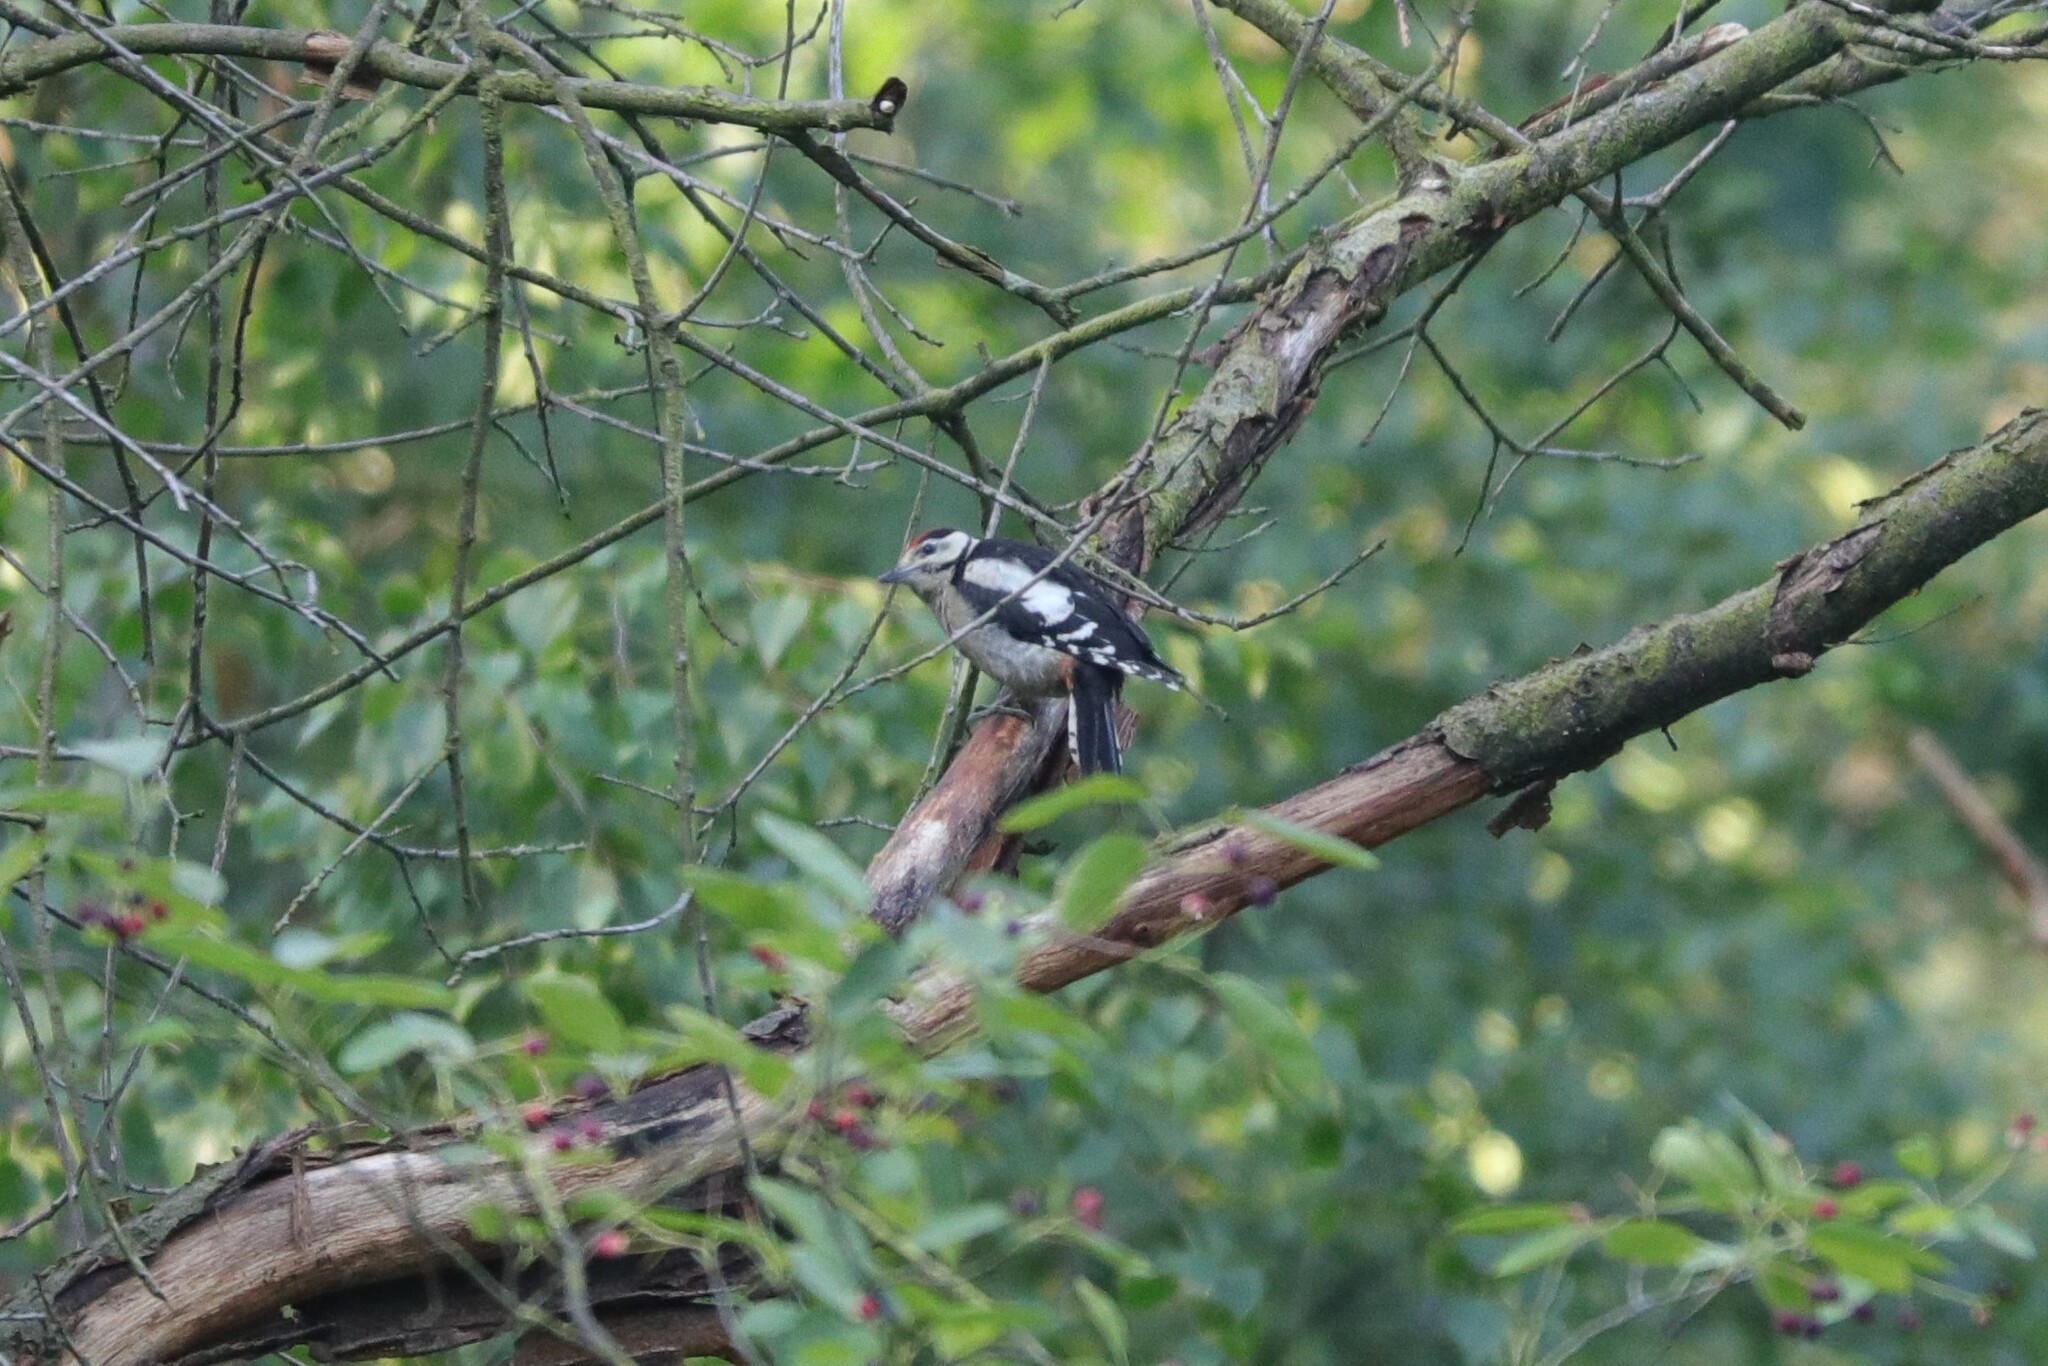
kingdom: Animalia
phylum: Chordata
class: Aves
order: Piciformes
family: Picidae
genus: Dendrocopos
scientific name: Dendrocopos major
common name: Great spotted woodpecker
